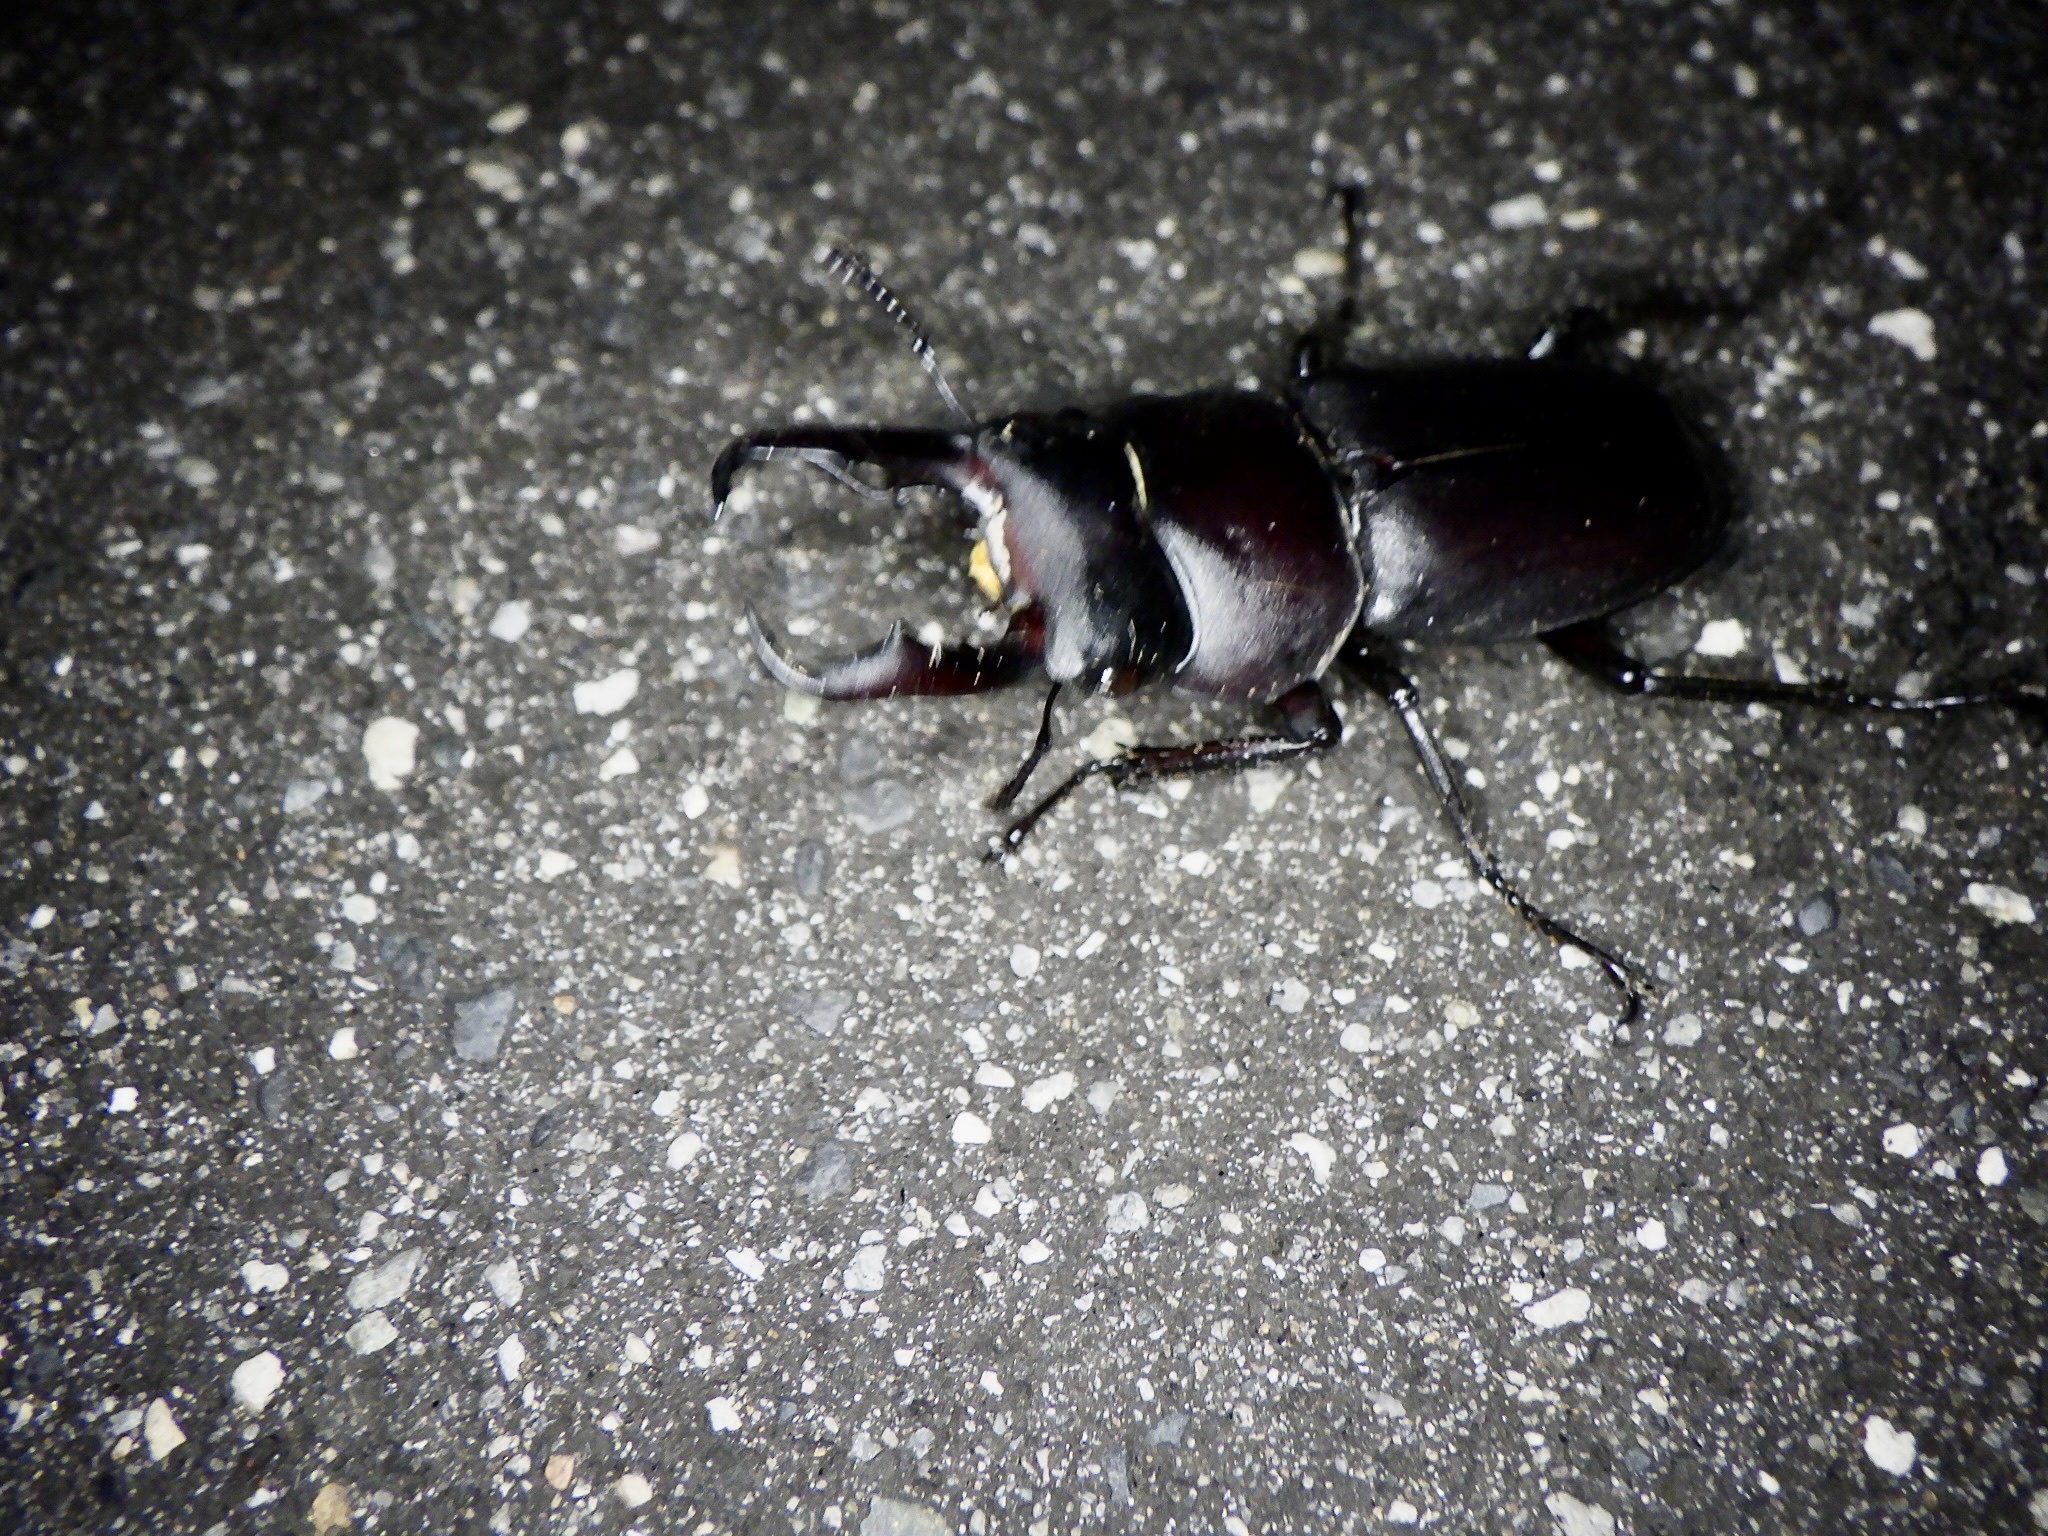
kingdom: Animalia
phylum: Arthropoda
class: Insecta
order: Coleoptera
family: Lucanidae
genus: Dorcus
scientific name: Dorcus rectus
